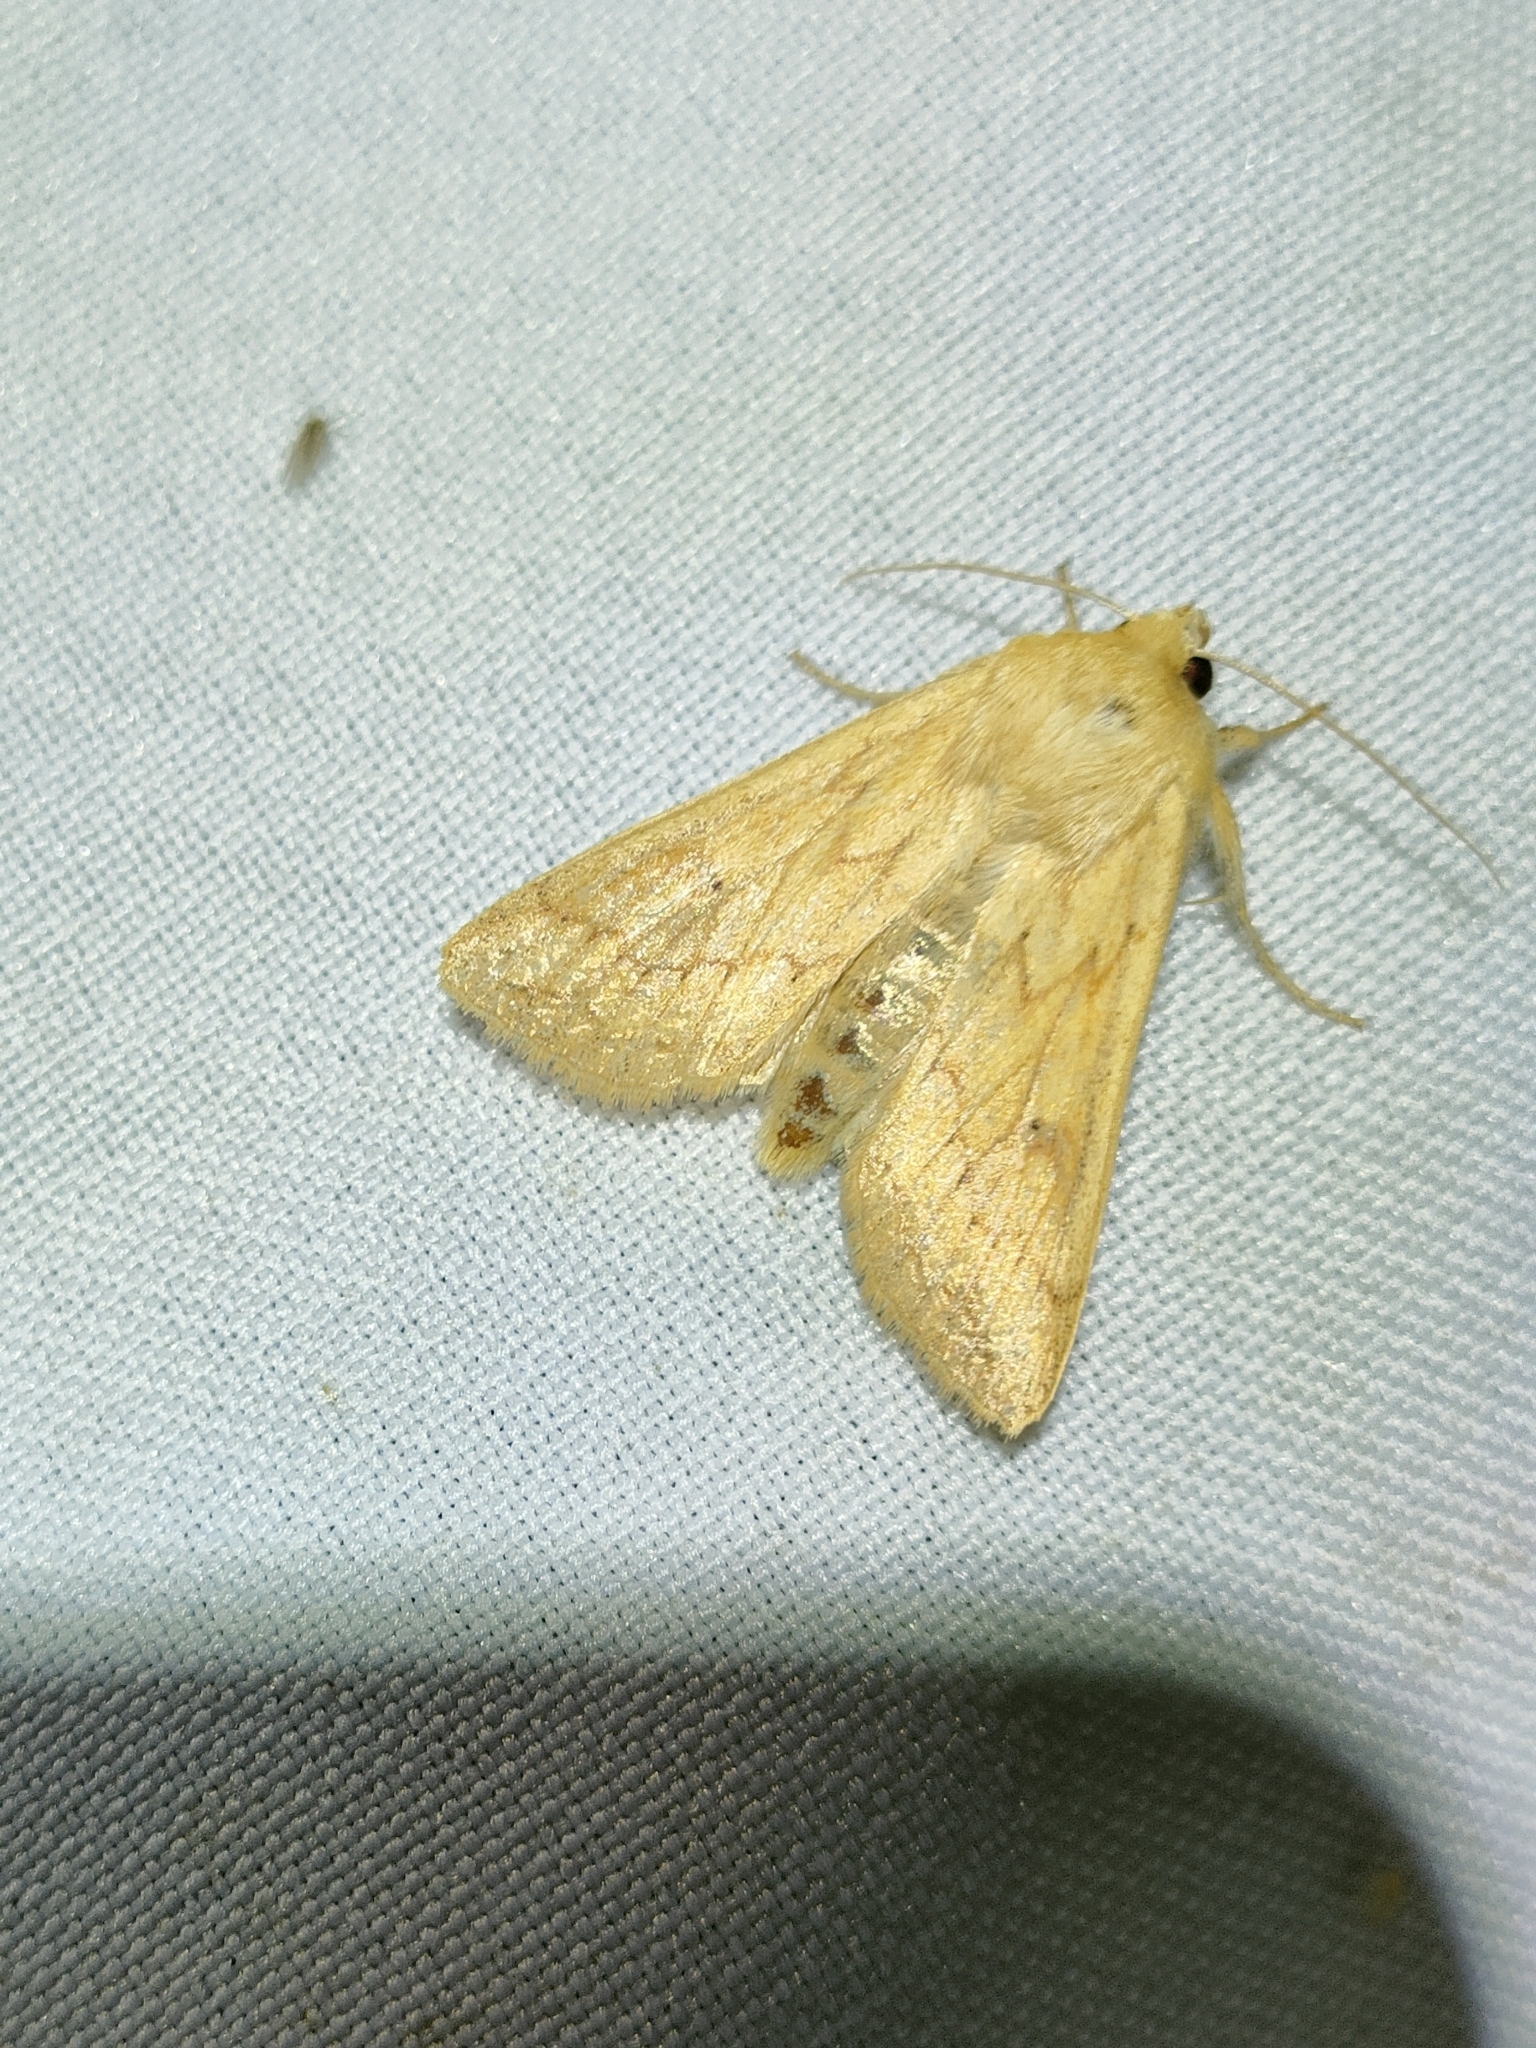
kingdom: Animalia
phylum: Arthropoda
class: Insecta
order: Lepidoptera
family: Noctuidae
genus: Mythimna
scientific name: Mythimna vitellina
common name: Delicate
